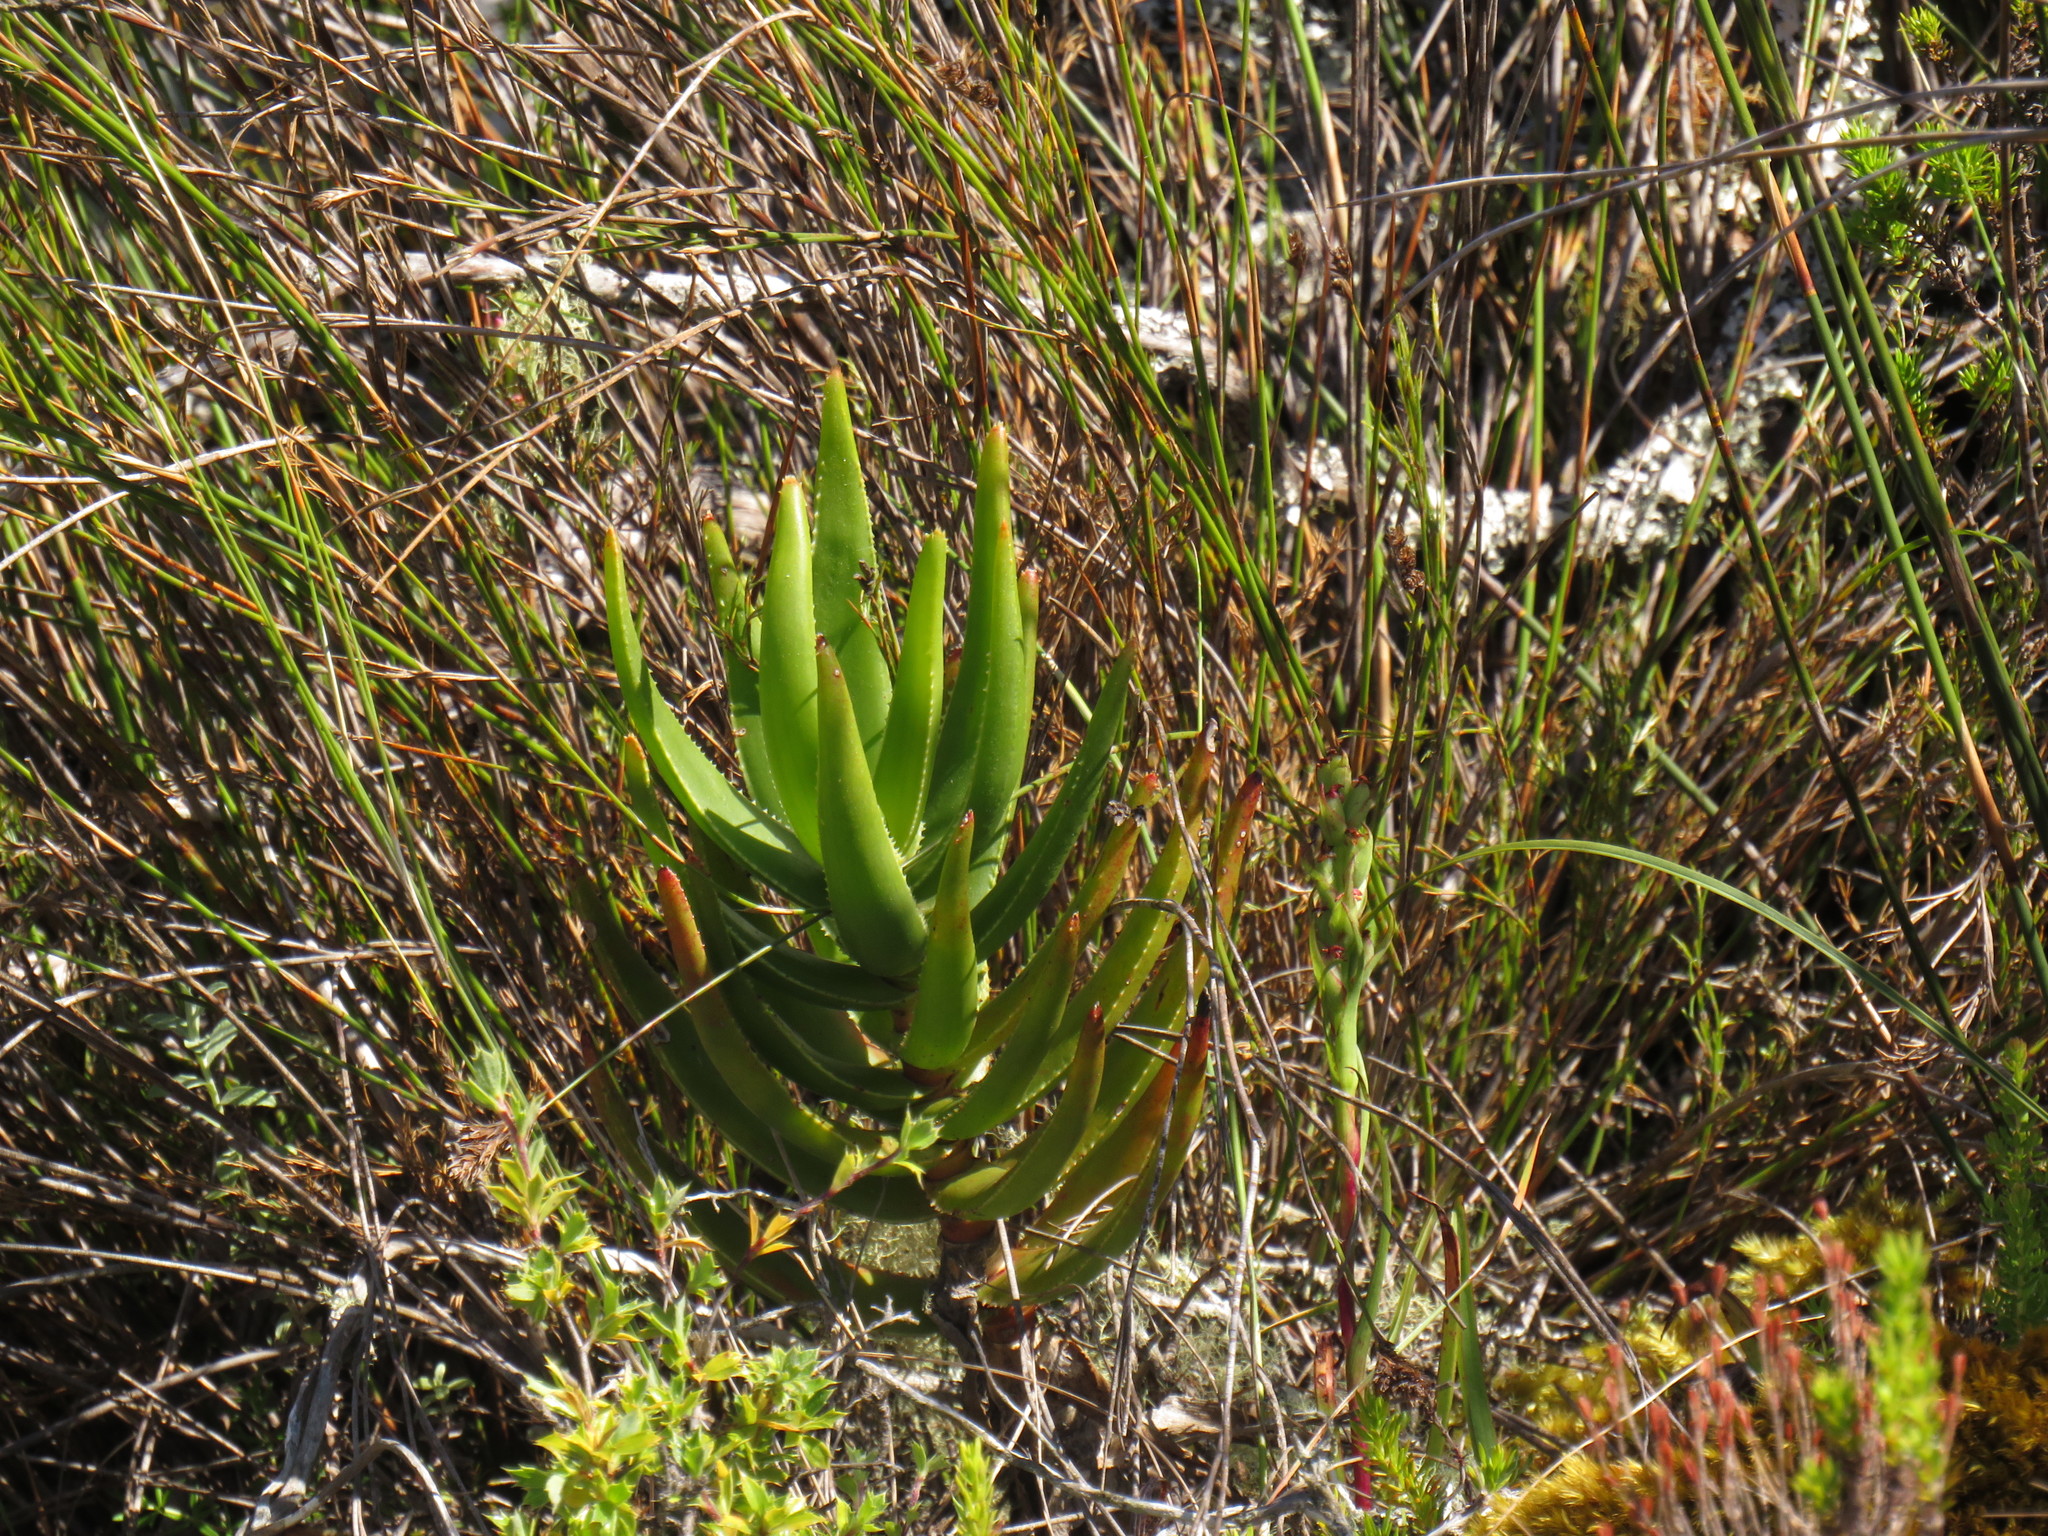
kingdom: Plantae
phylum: Tracheophyta
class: Liliopsida
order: Asparagales
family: Asphodelaceae
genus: Aloiampelos
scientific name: Aloiampelos commixta
